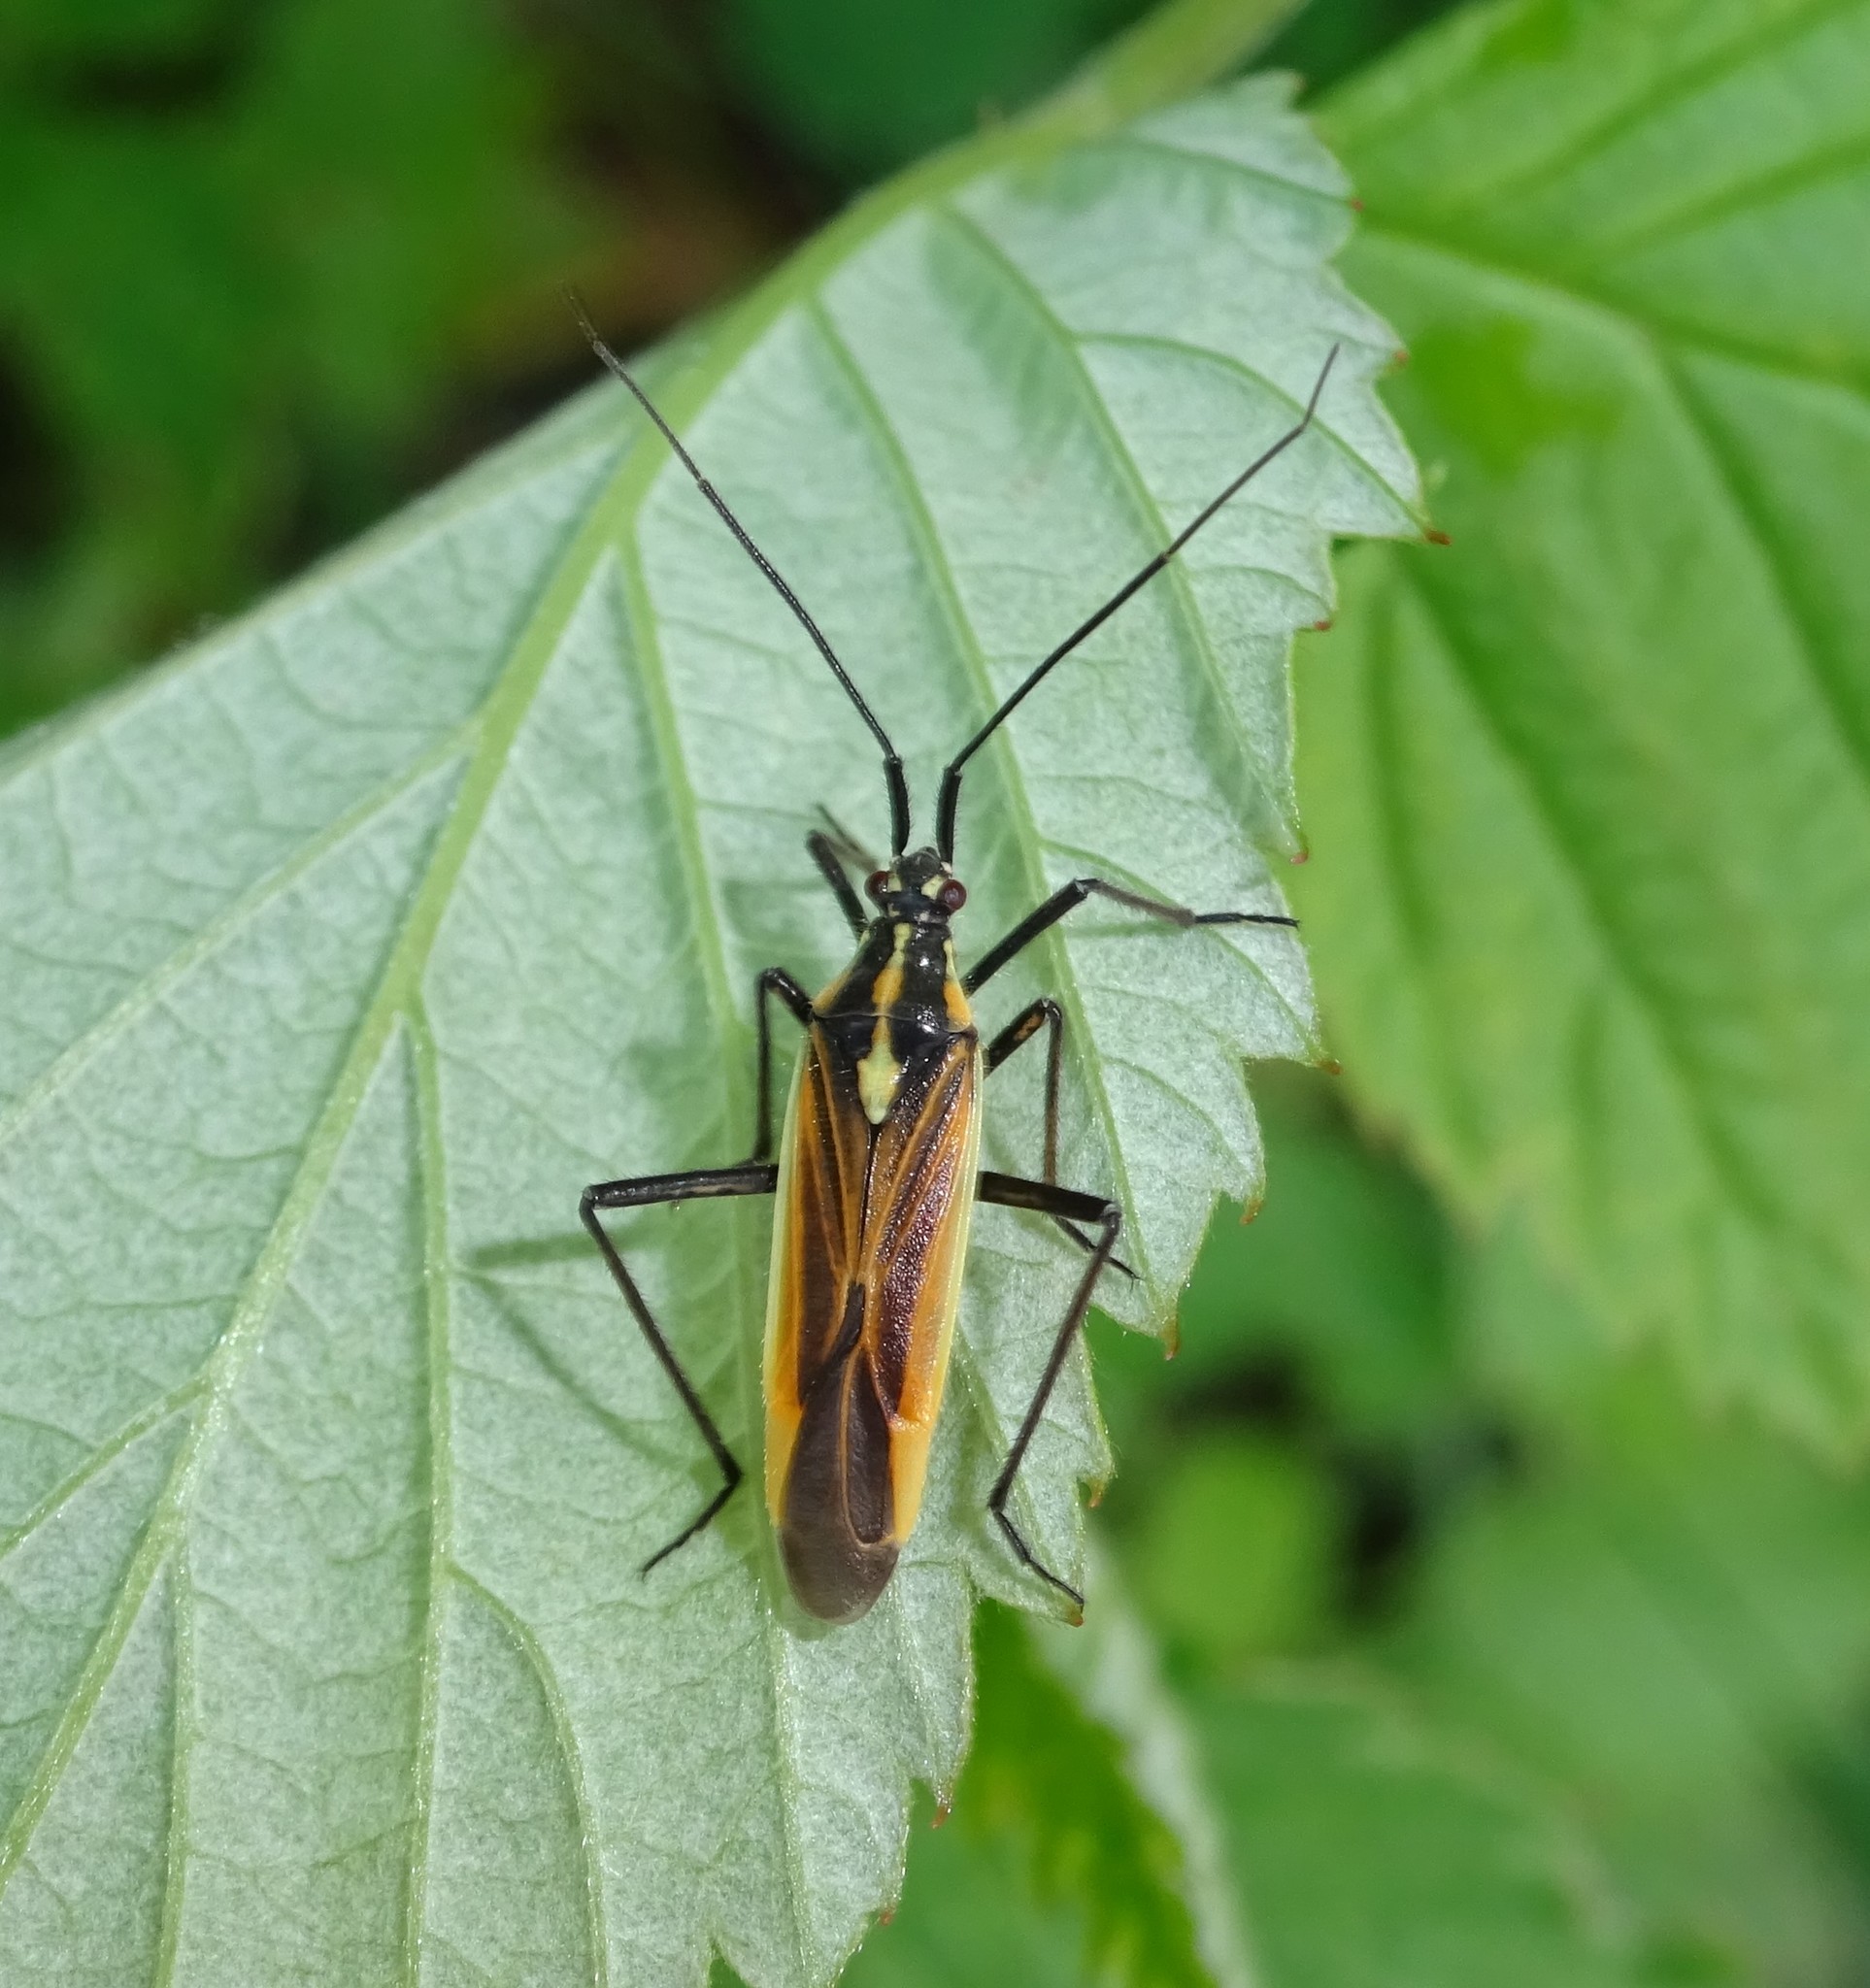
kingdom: Animalia
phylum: Arthropoda
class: Insecta
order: Hemiptera
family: Miridae
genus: Leptopterna
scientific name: Leptopterna dolabrata
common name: Meadow plant bug
